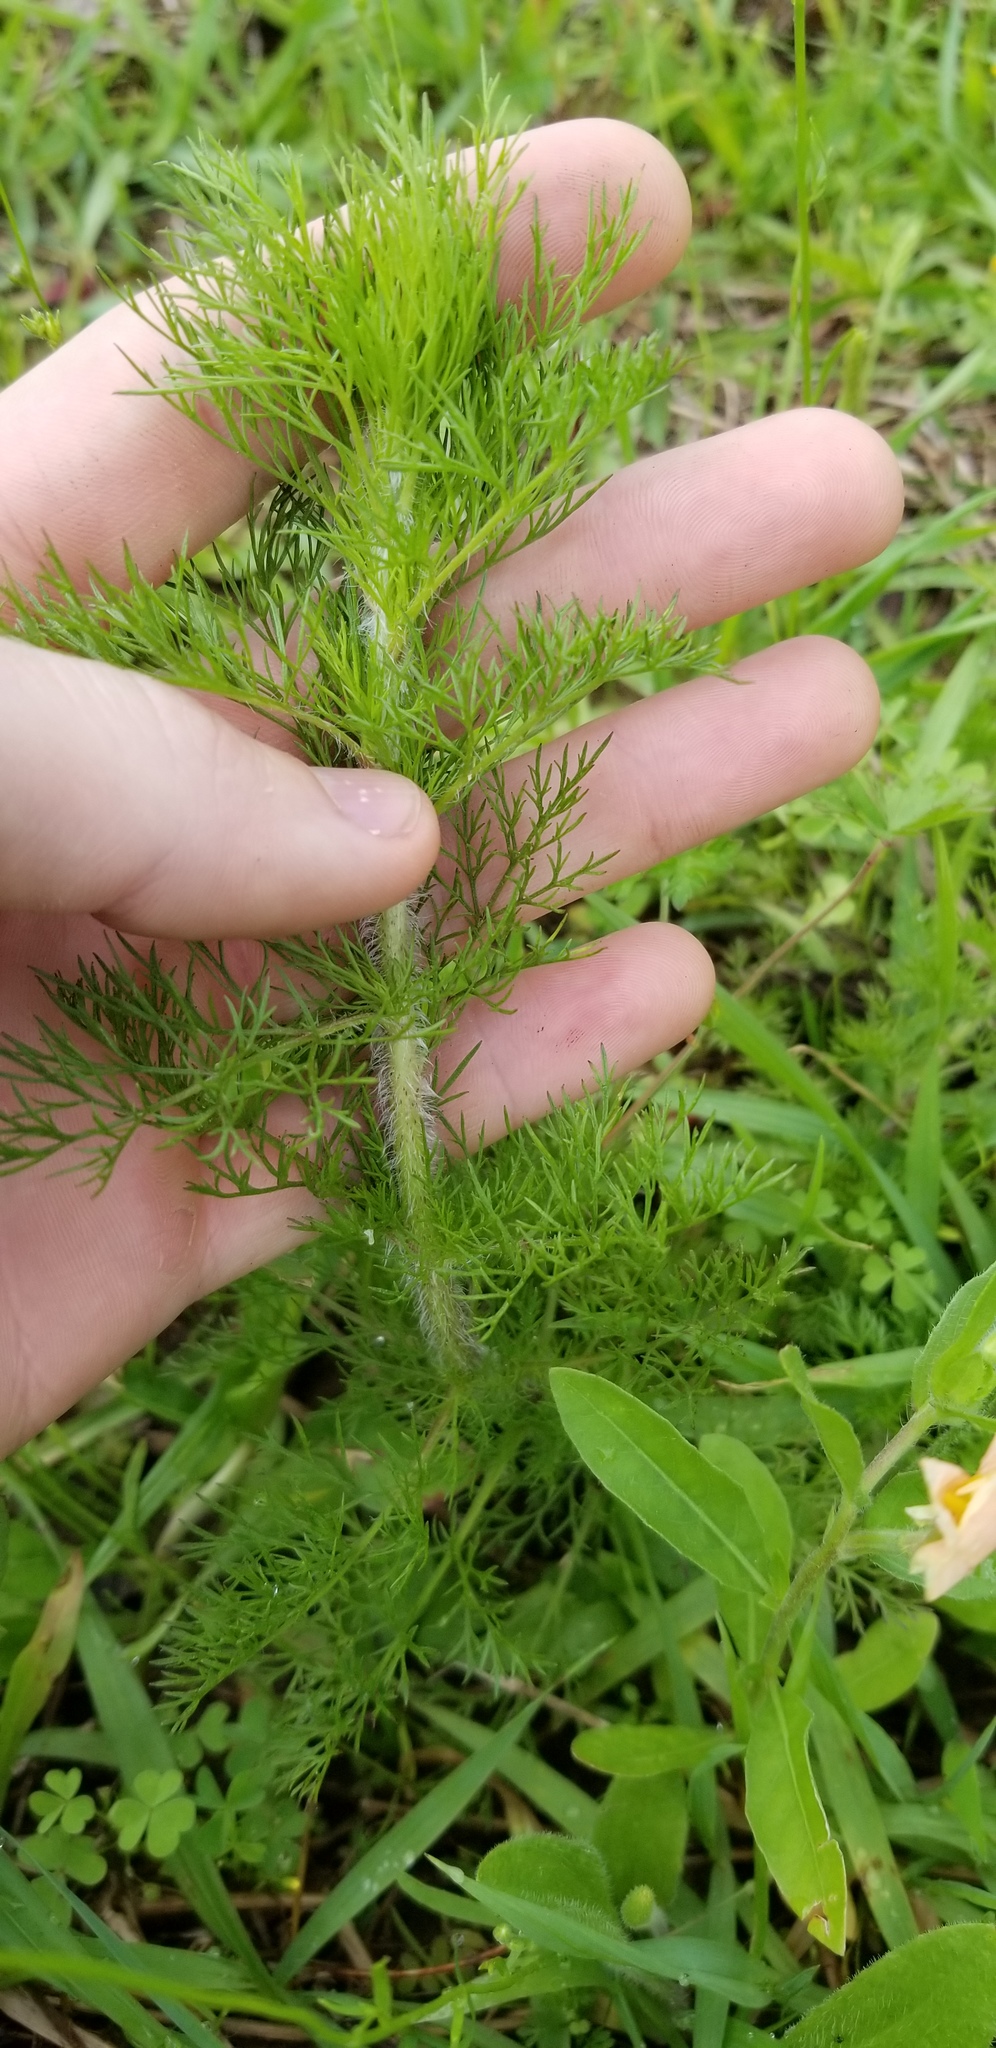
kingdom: Plantae
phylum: Tracheophyta
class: Magnoliopsida
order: Asterales
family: Asteraceae
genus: Eupatorium
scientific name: Eupatorium capillifolium
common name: Dog-fennel
